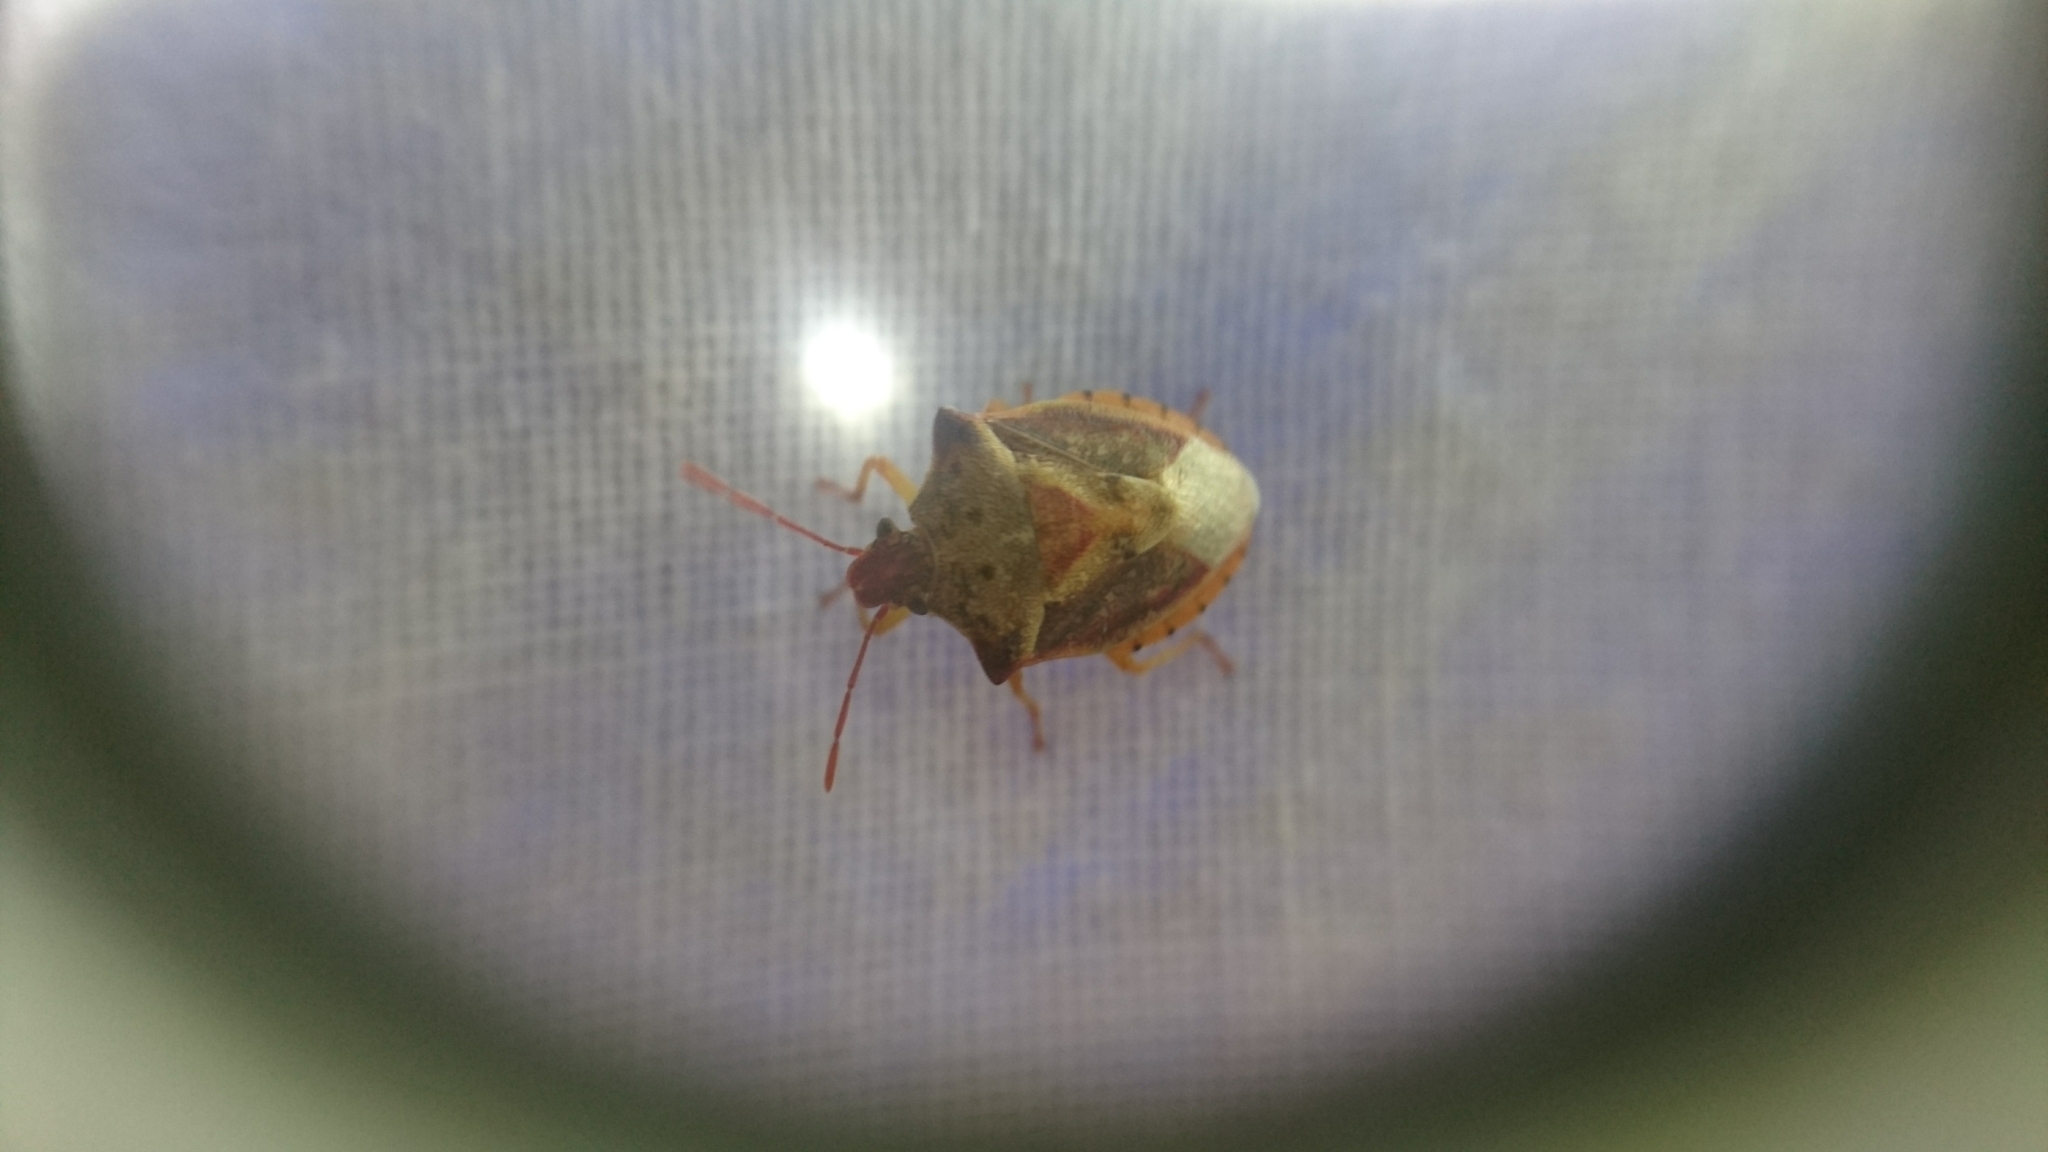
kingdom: Animalia
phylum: Arthropoda
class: Insecta
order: Hemiptera
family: Pentatomidae
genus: Dendrocoris
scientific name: Dendrocoris humeralis
